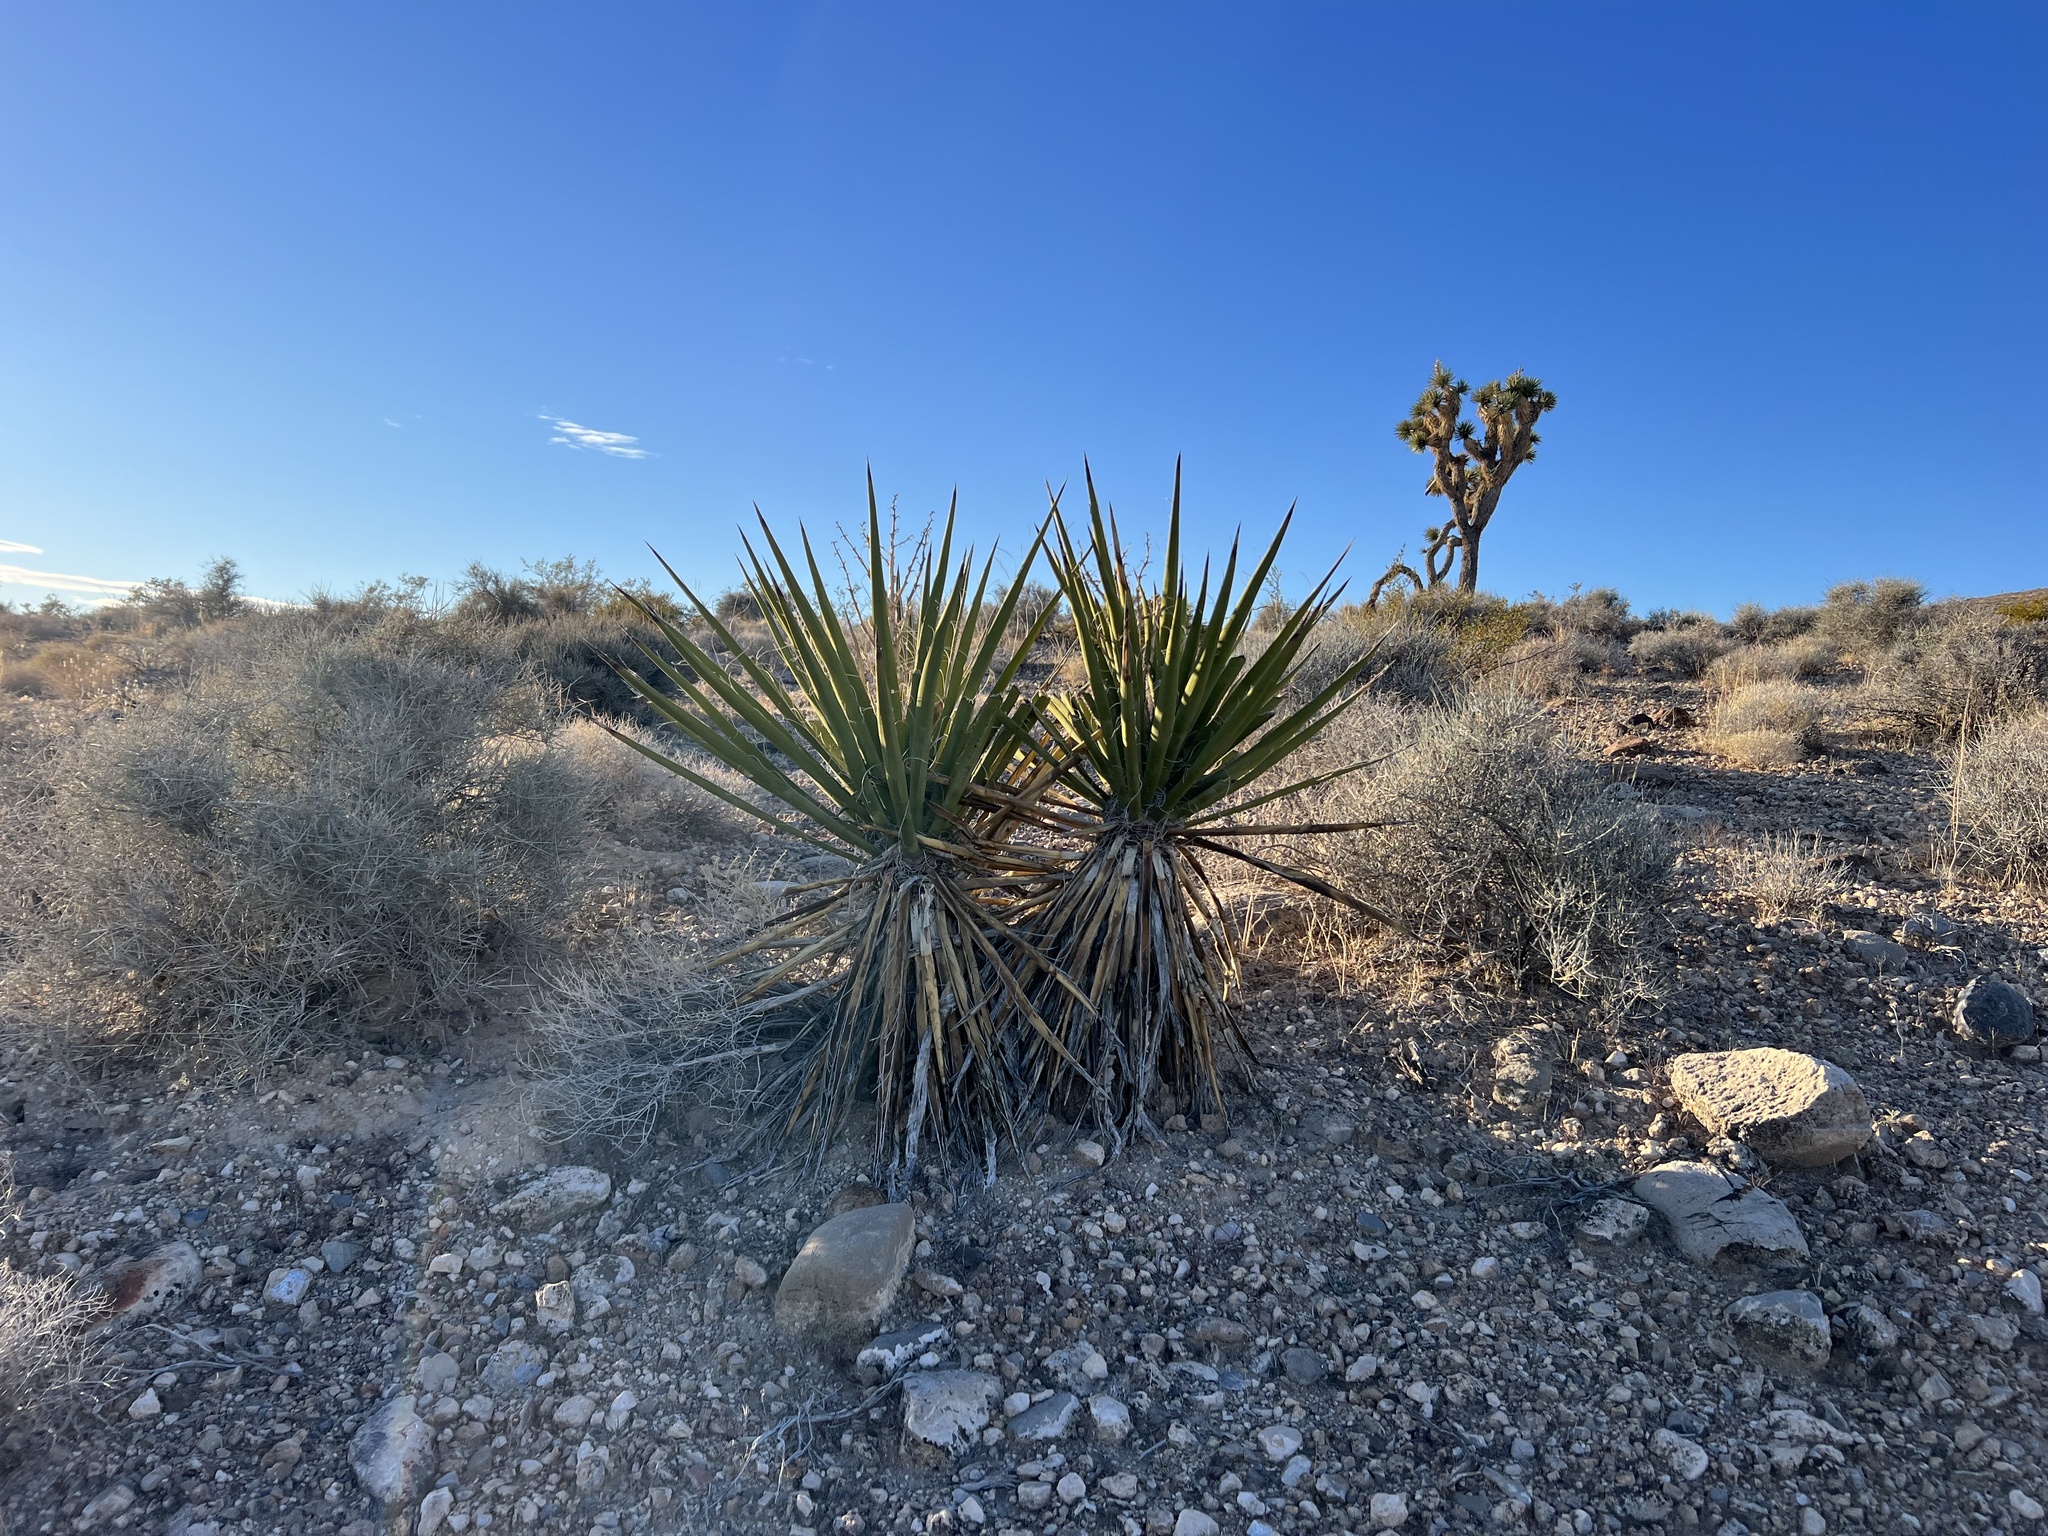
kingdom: Plantae
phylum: Tracheophyta
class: Liliopsida
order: Asparagales
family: Asparagaceae
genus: Yucca
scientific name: Yucca schidigera
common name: Mojave yucca
